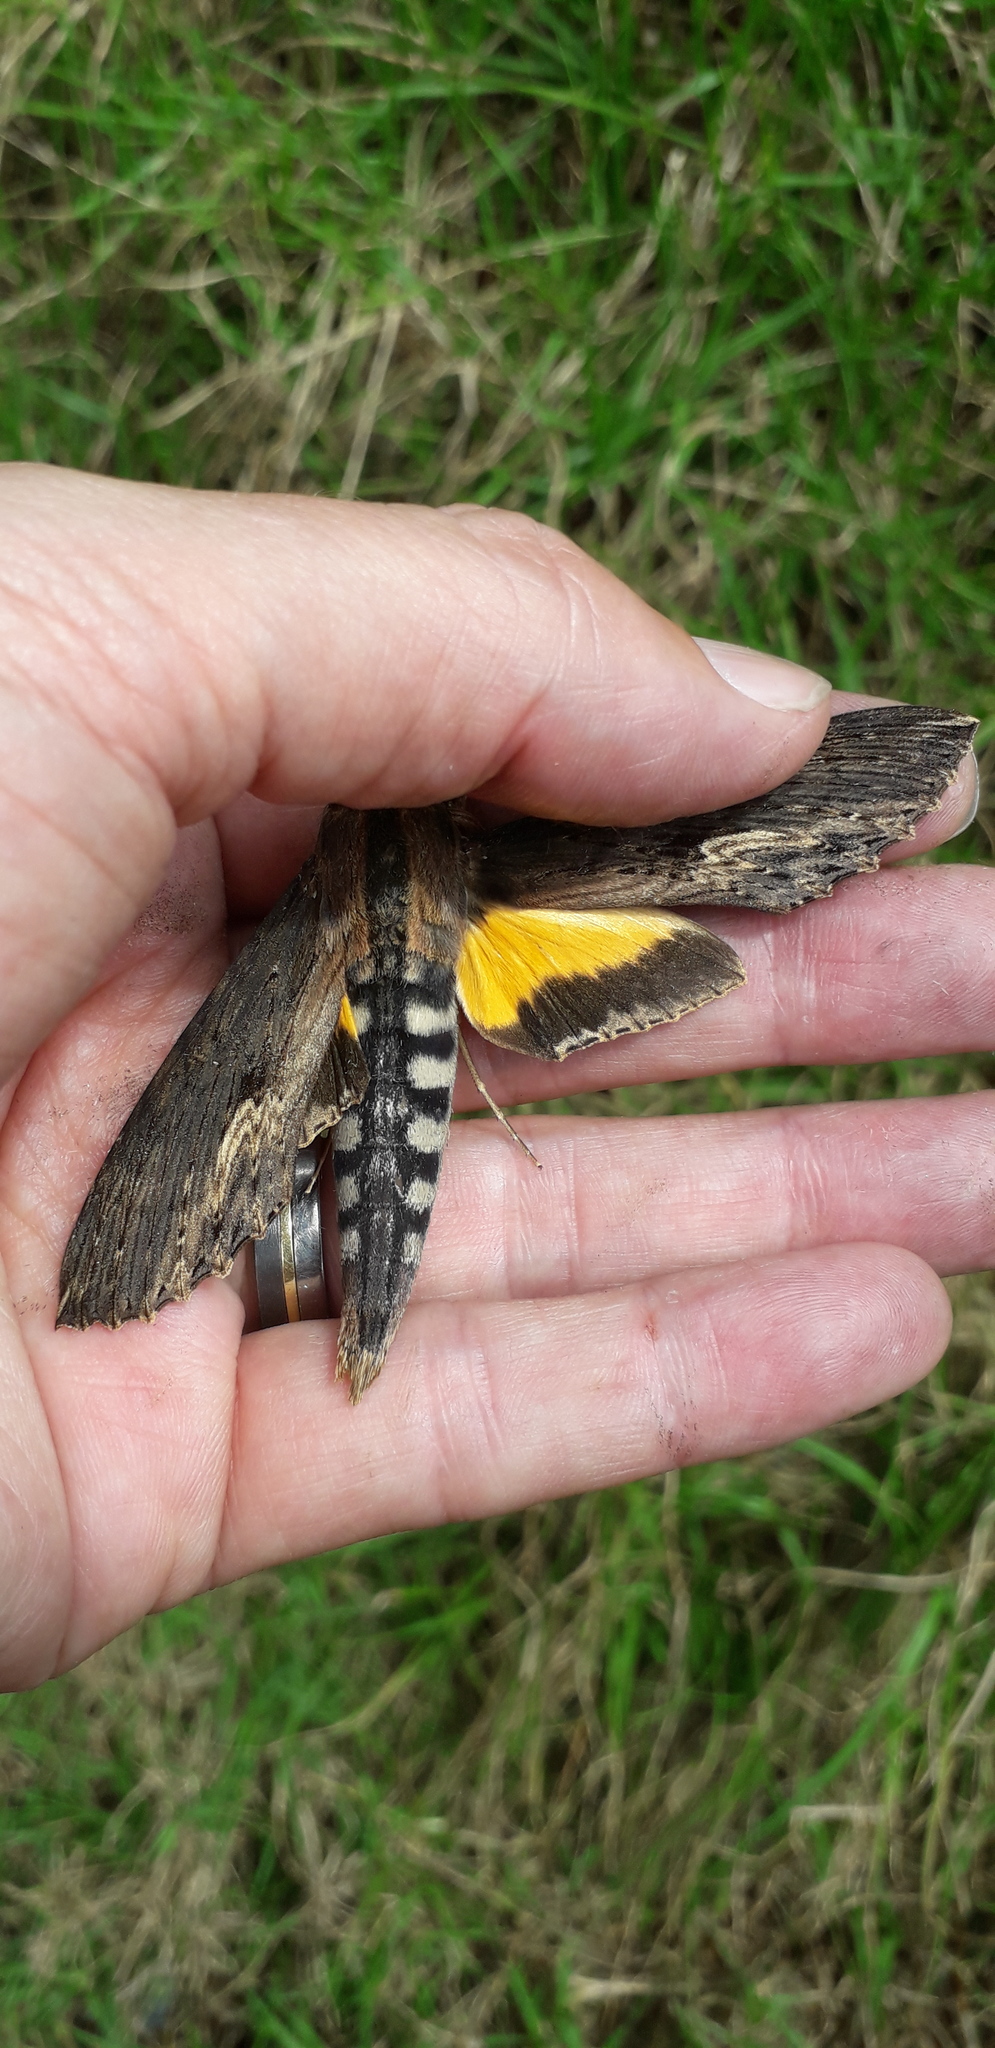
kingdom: Animalia
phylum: Arthropoda
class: Insecta
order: Lepidoptera
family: Sphingidae
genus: Erinnyis
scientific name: Erinnyis alope
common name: Alope sphinx
